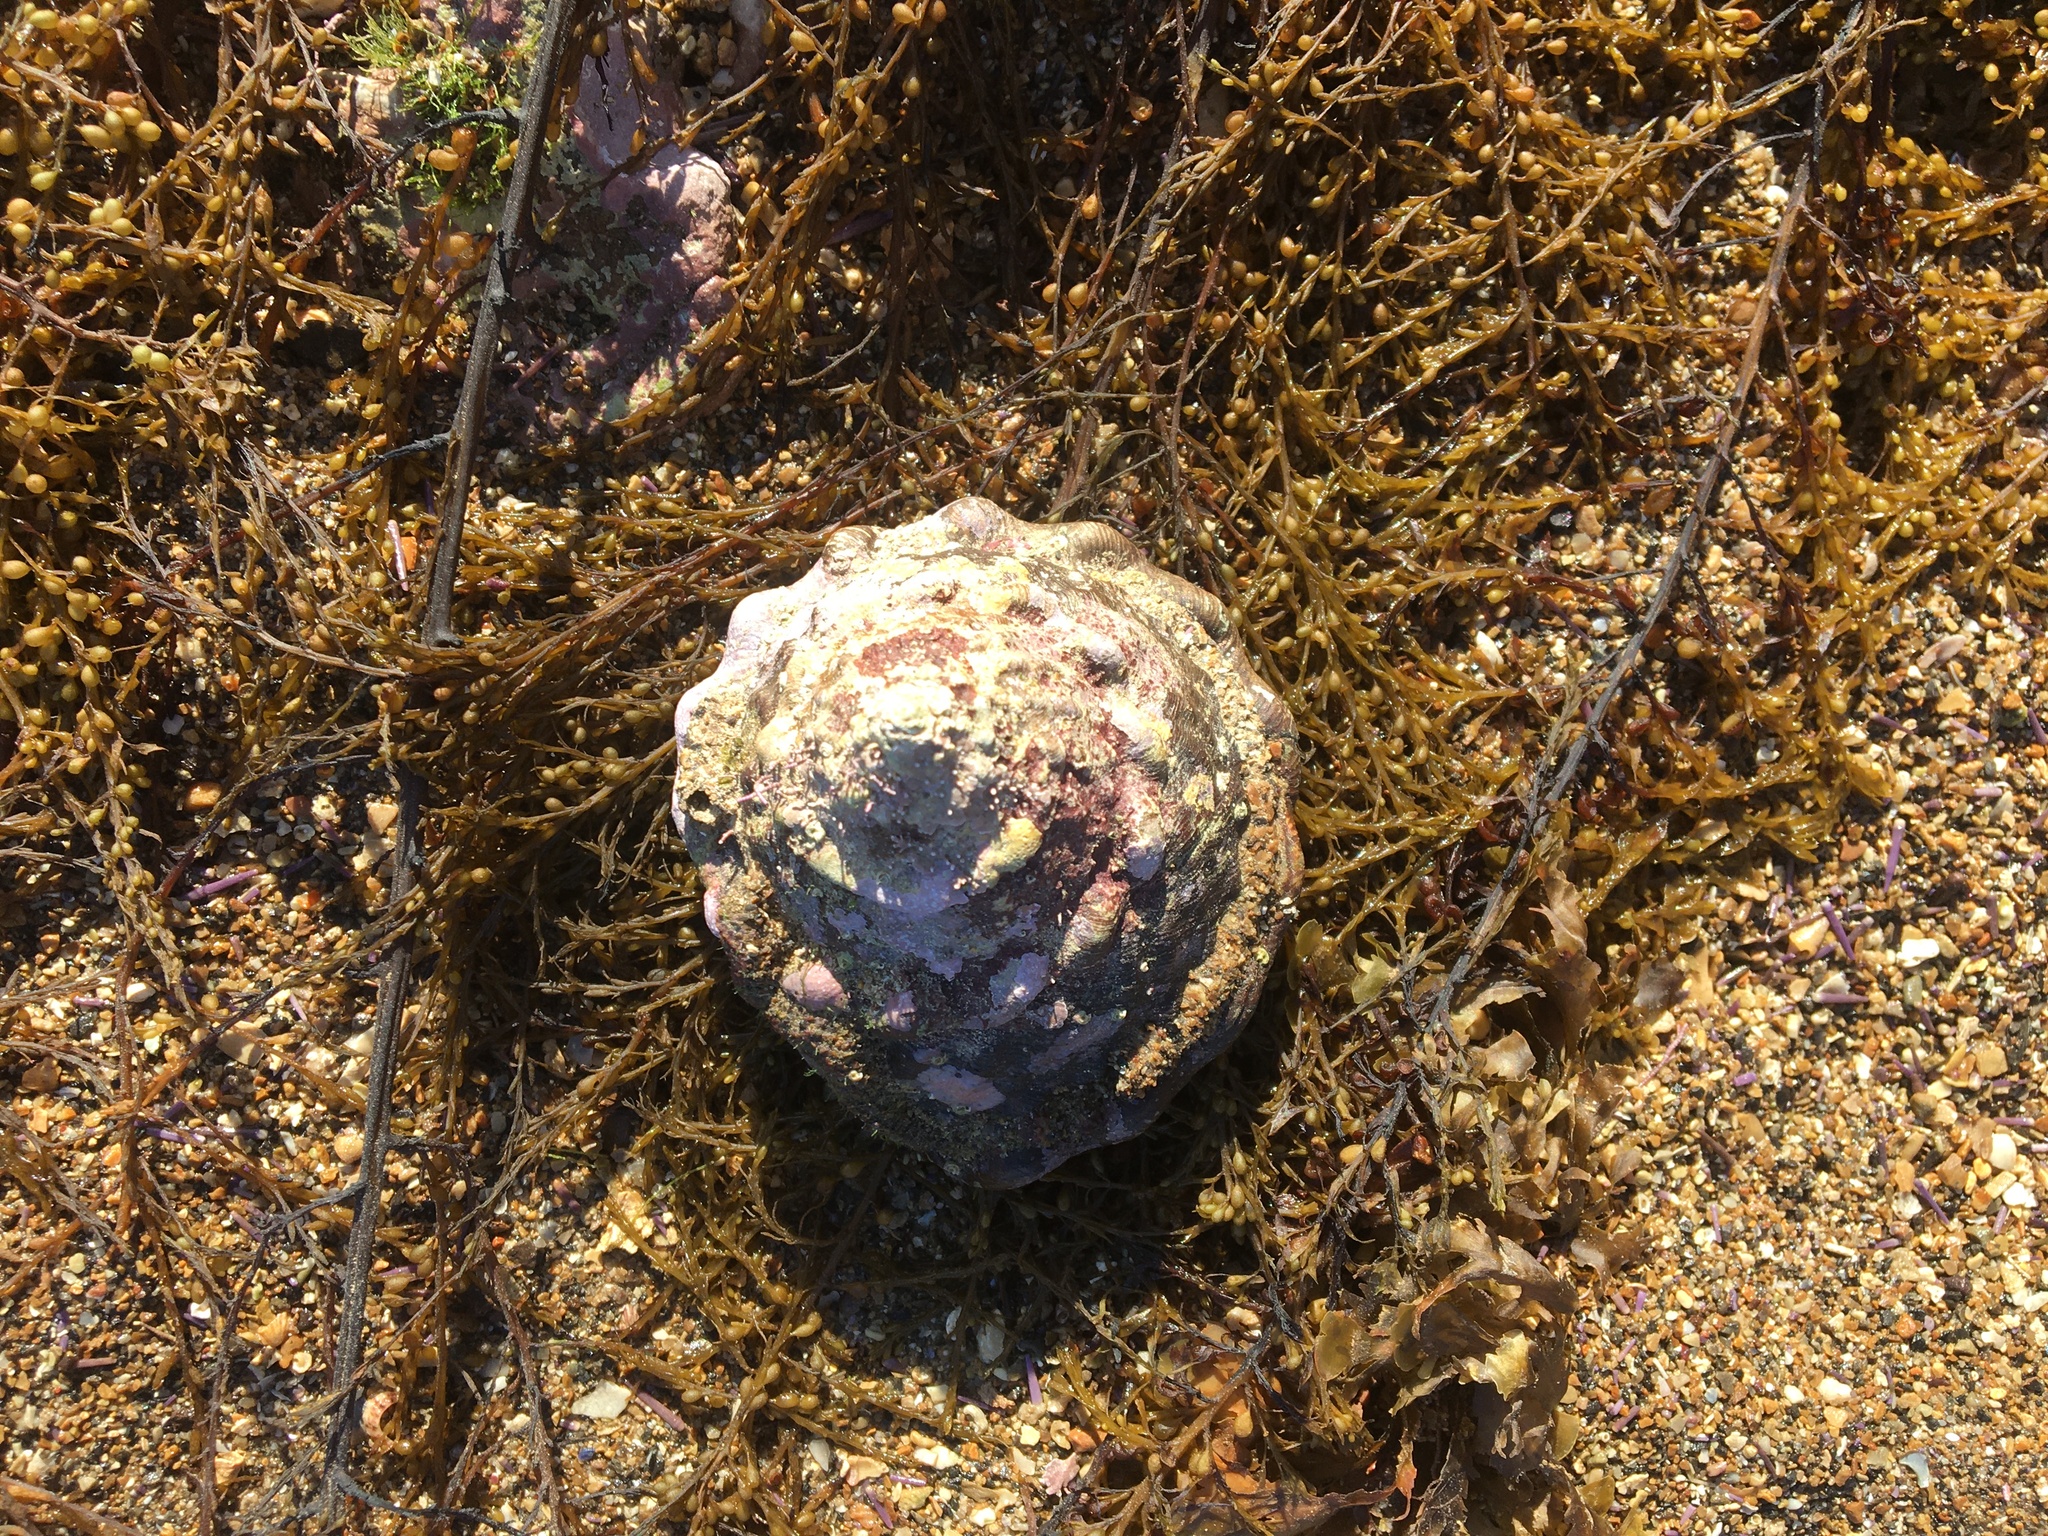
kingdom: Animalia
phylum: Mollusca
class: Gastropoda
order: Trochida
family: Turbinidae
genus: Megastraea
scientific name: Megastraea undosa
